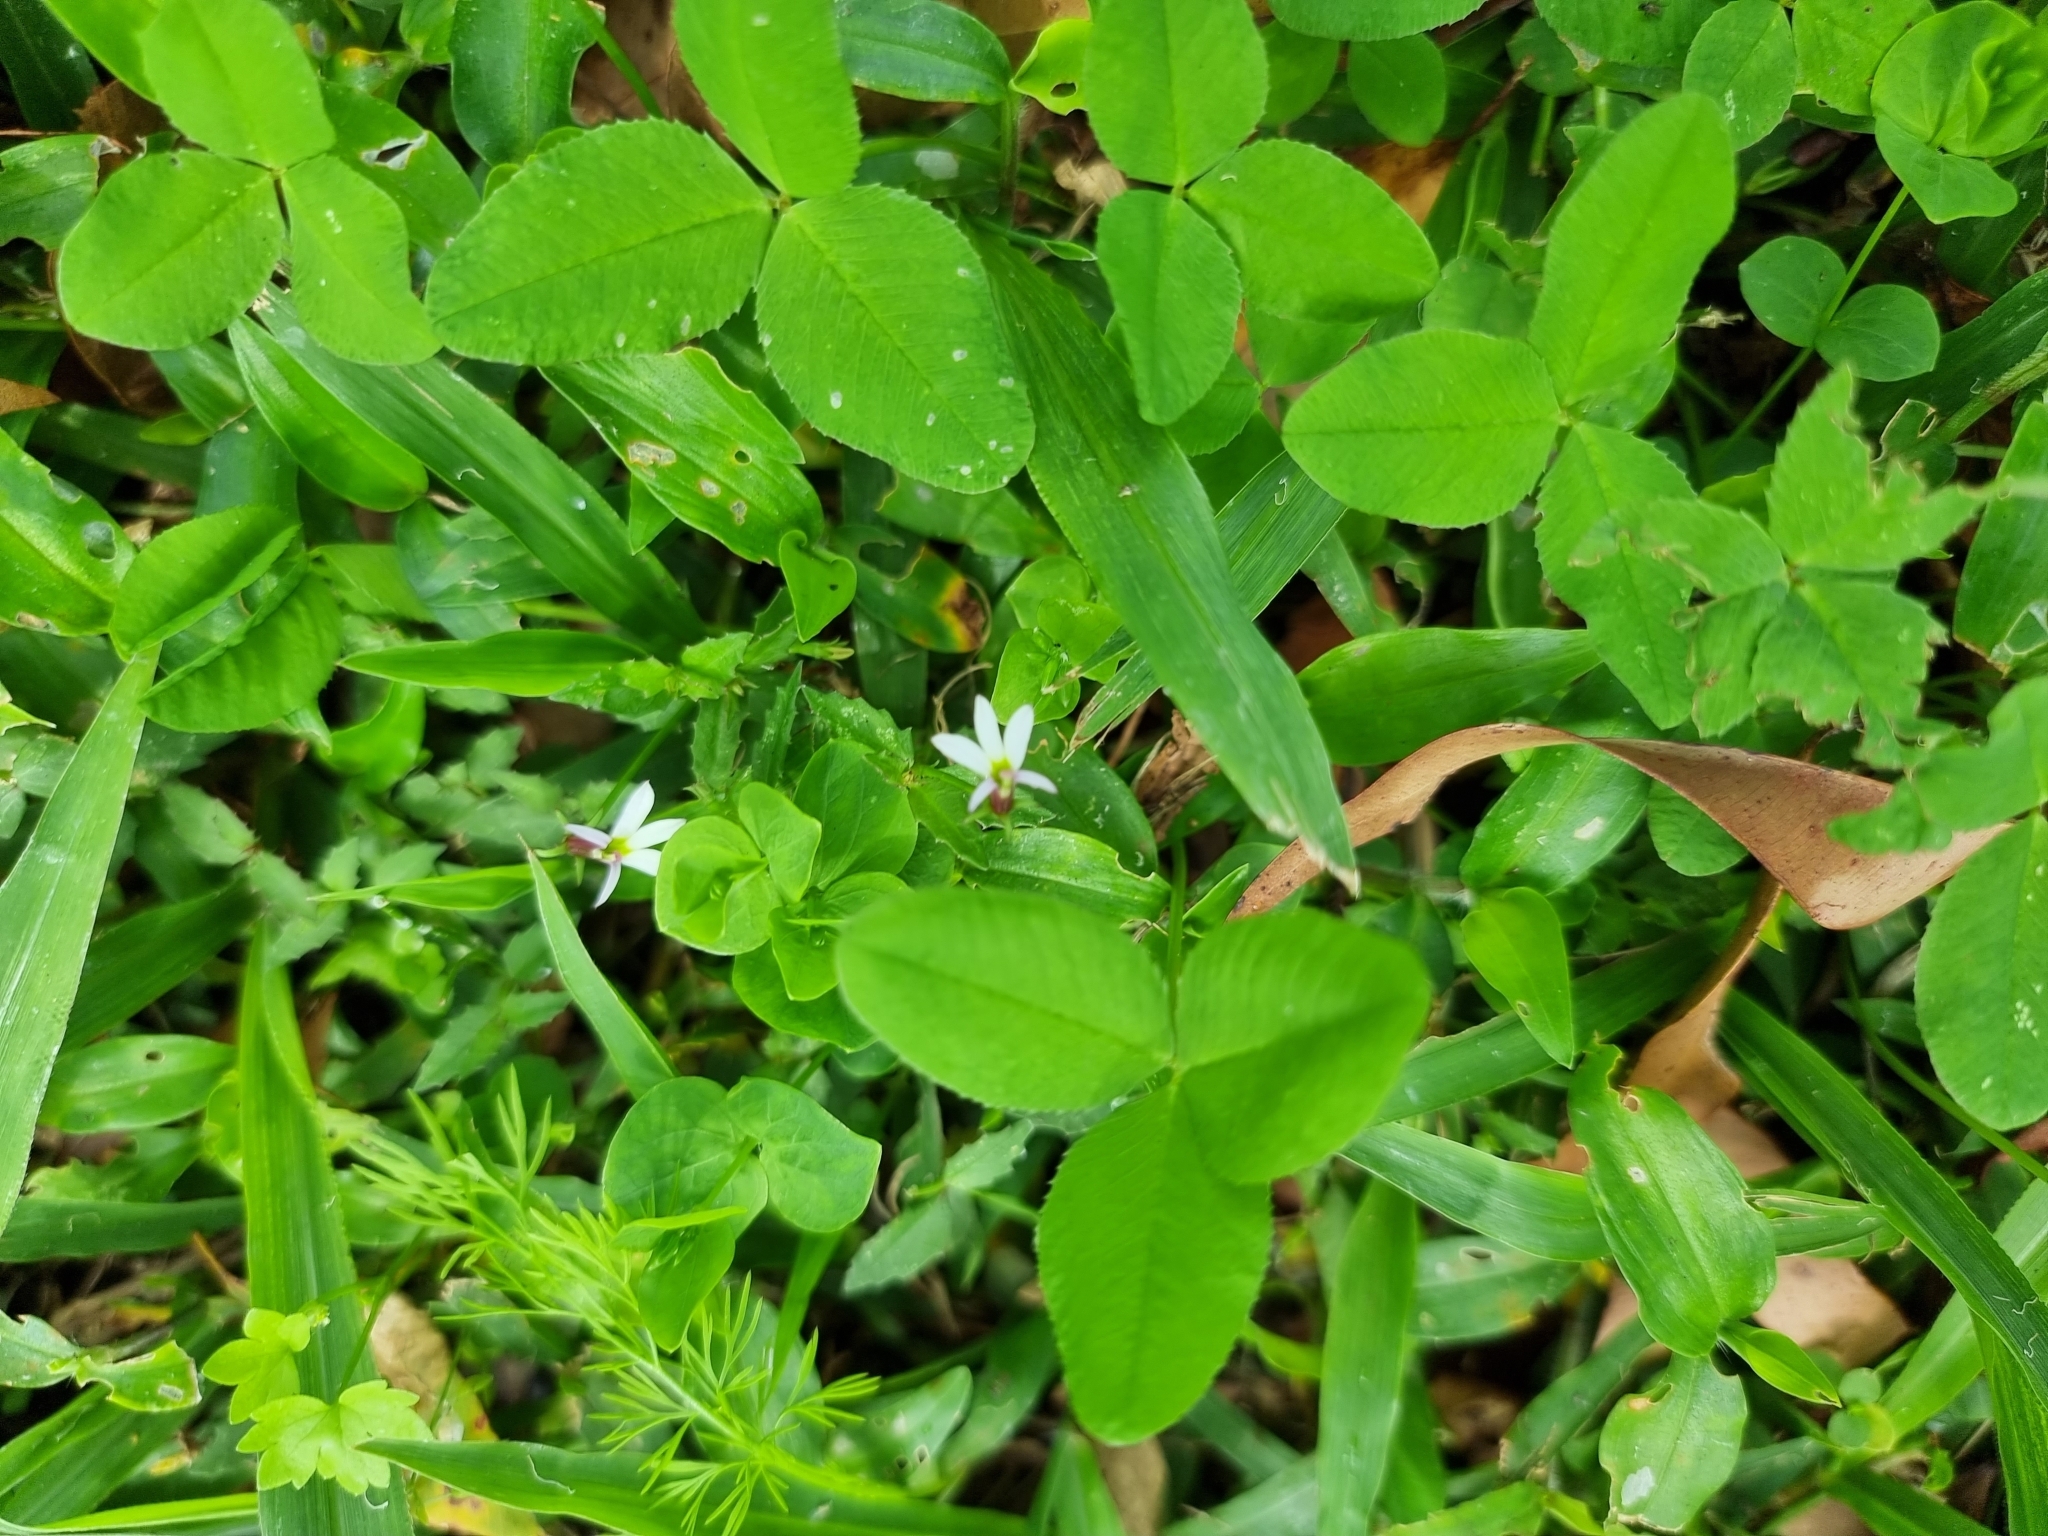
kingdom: Plantae
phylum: Tracheophyta
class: Magnoliopsida
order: Asterales
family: Campanulaceae
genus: Lobelia
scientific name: Lobelia purpurascens
